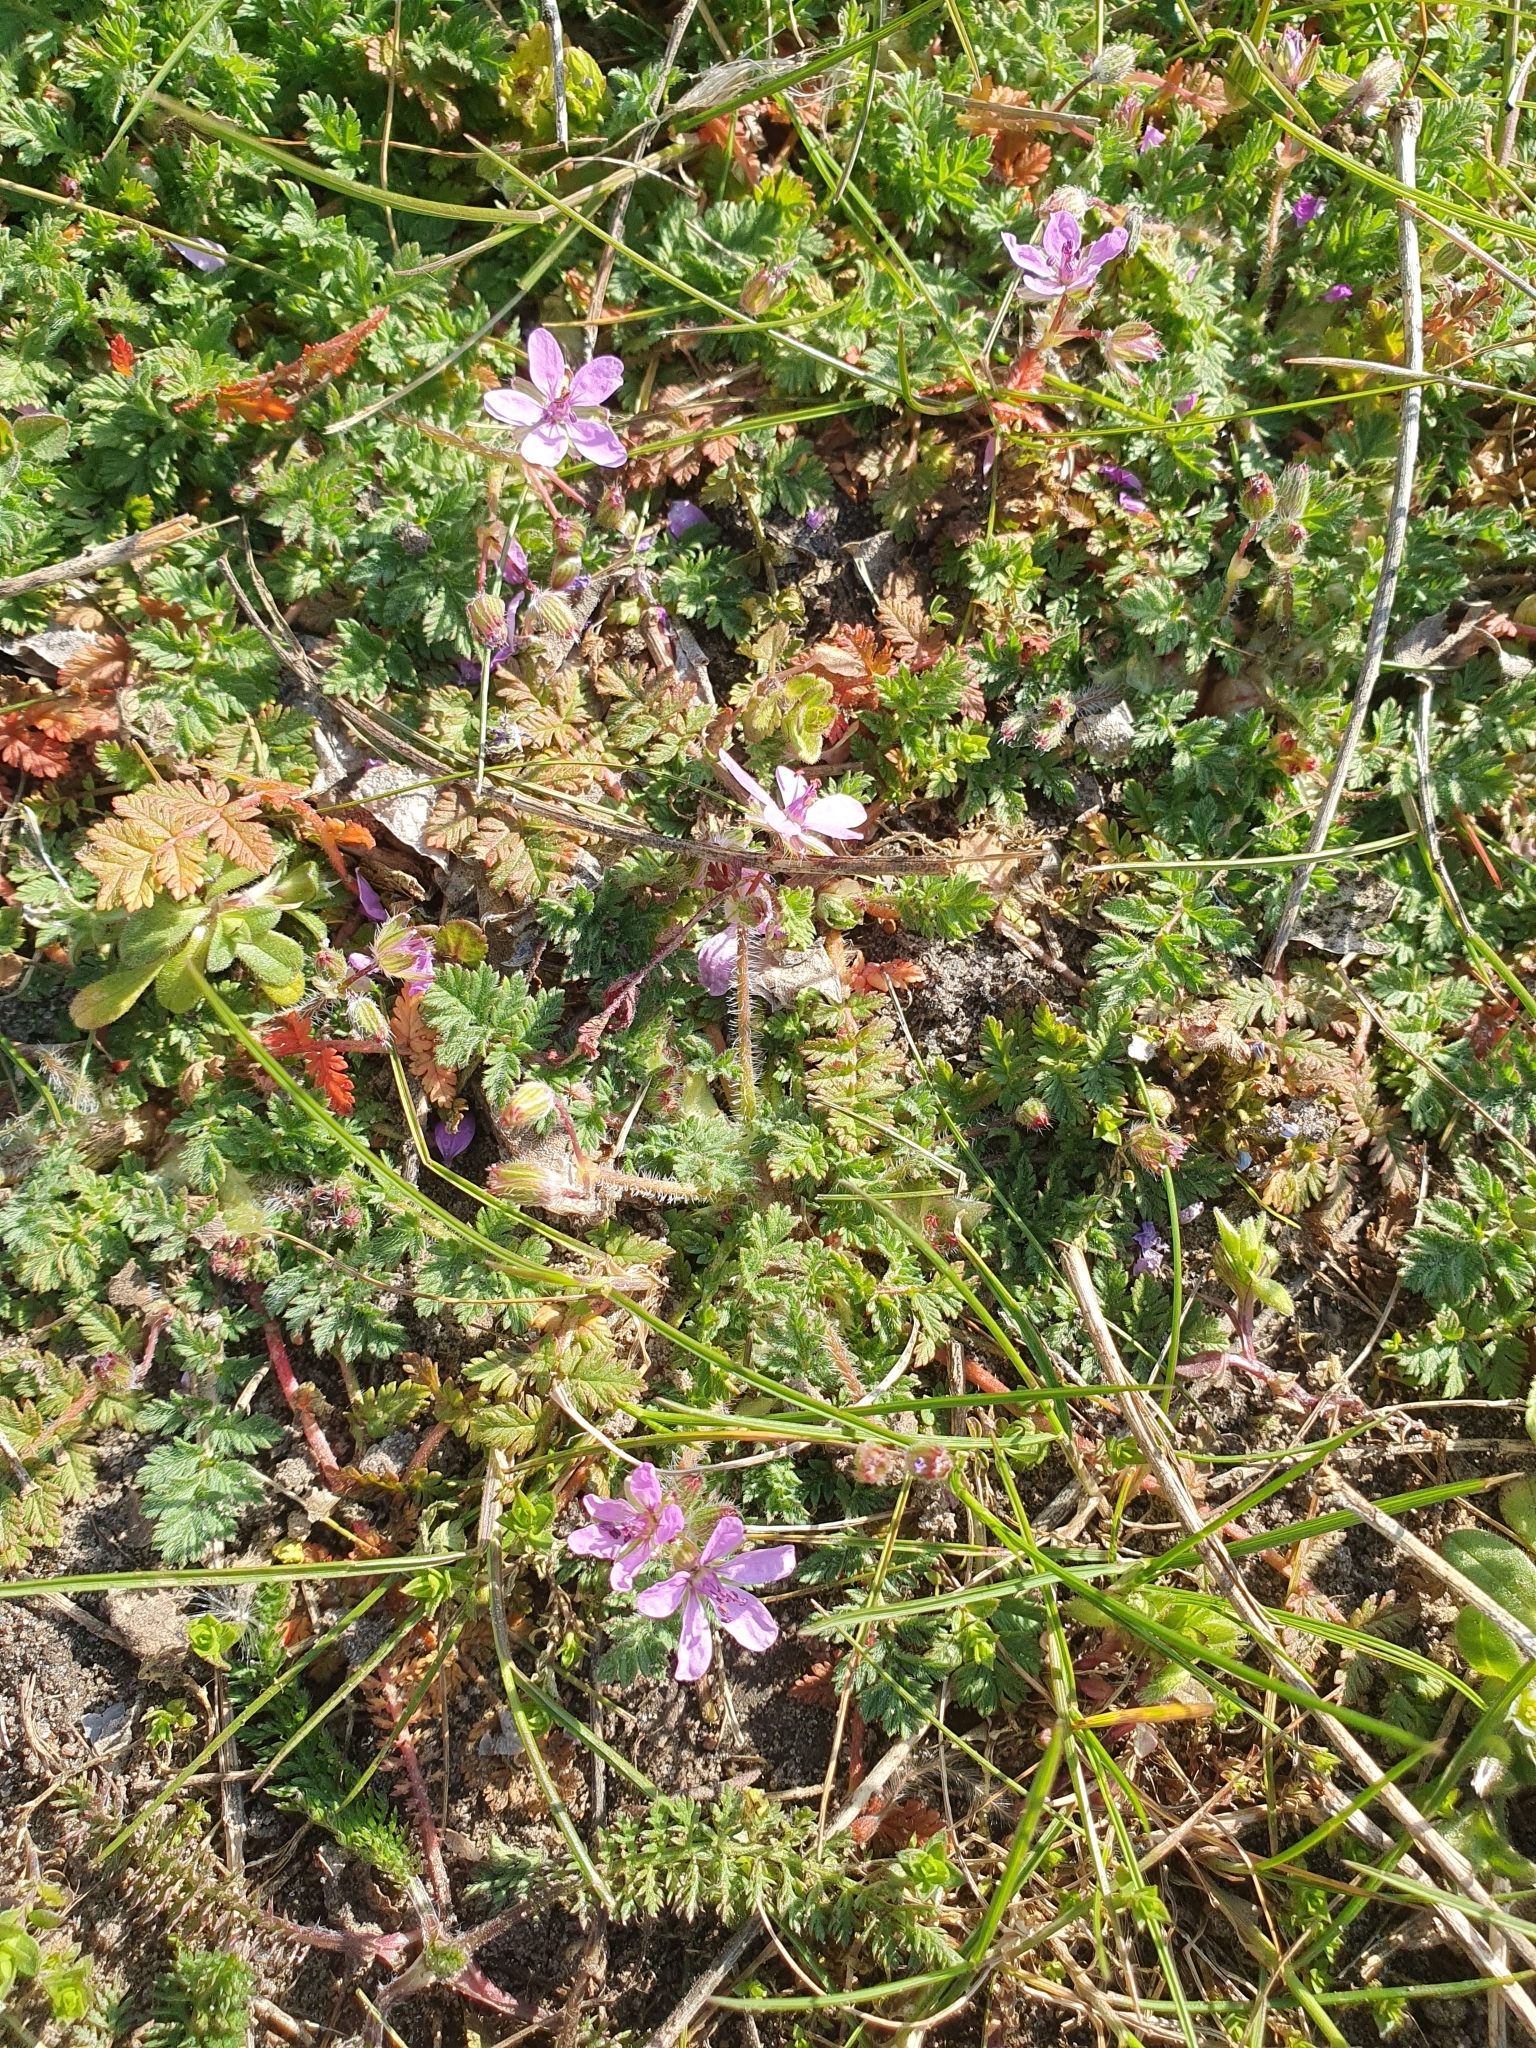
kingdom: Plantae
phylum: Tracheophyta
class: Magnoliopsida
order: Geraniales
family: Geraniaceae
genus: Erodium
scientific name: Erodium cicutarium
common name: Common stork's-bill
